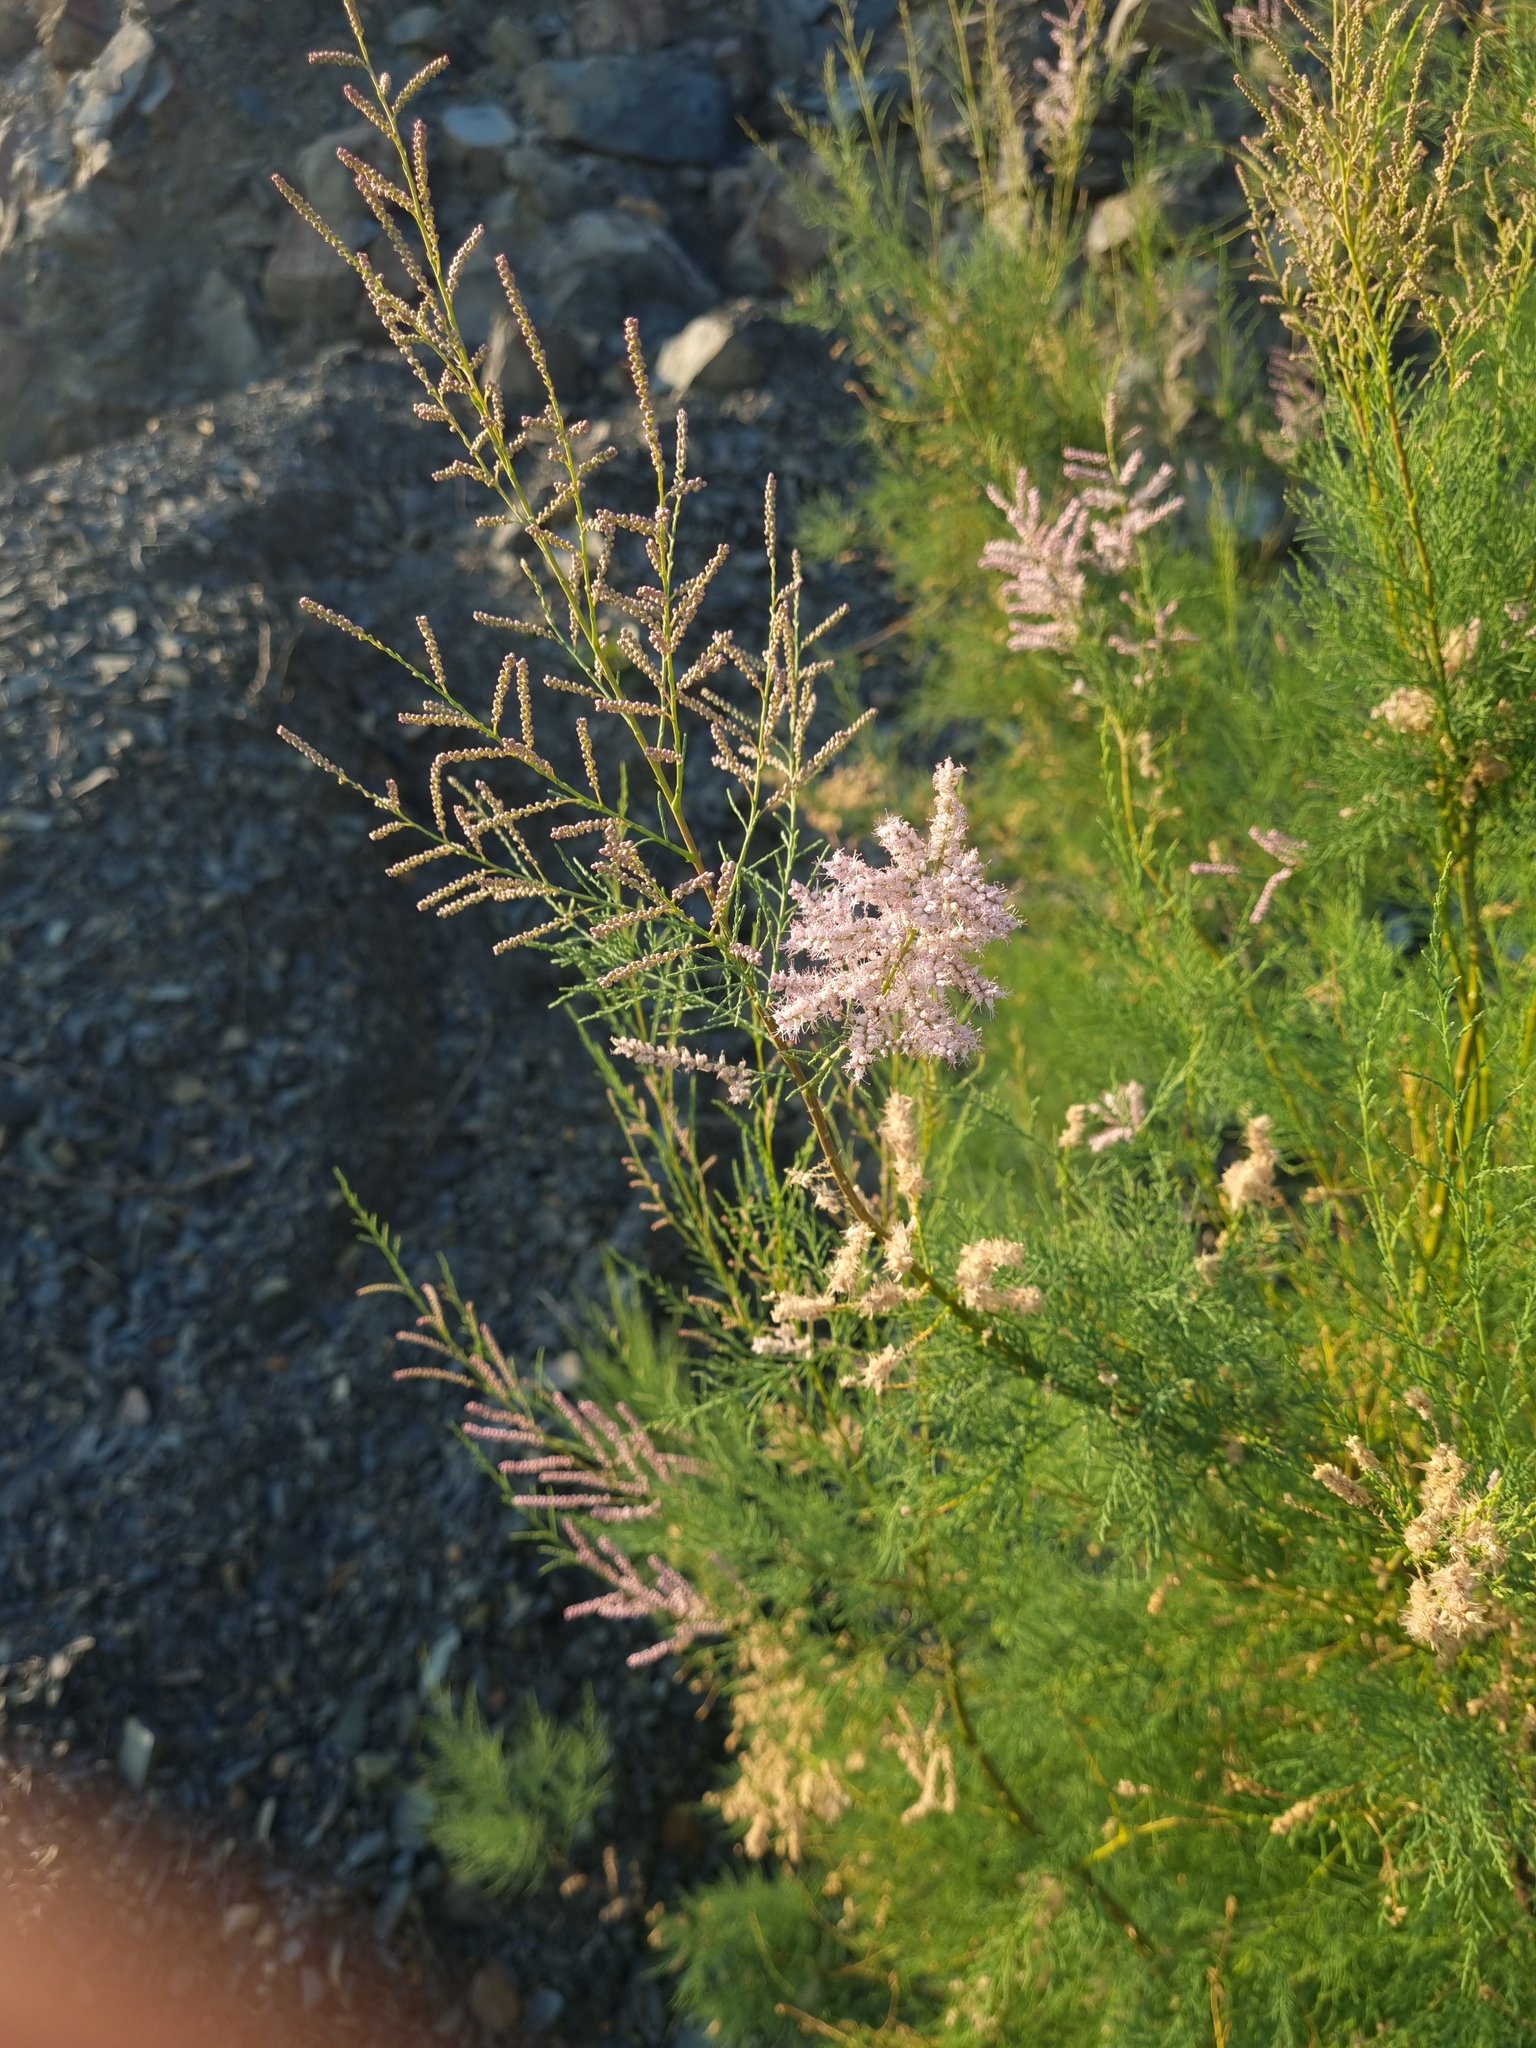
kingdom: Plantae
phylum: Tracheophyta
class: Magnoliopsida
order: Caryophyllales
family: Tamaricaceae
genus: Tamarix
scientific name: Tamarix ramosissima
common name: Pink tamarisk
